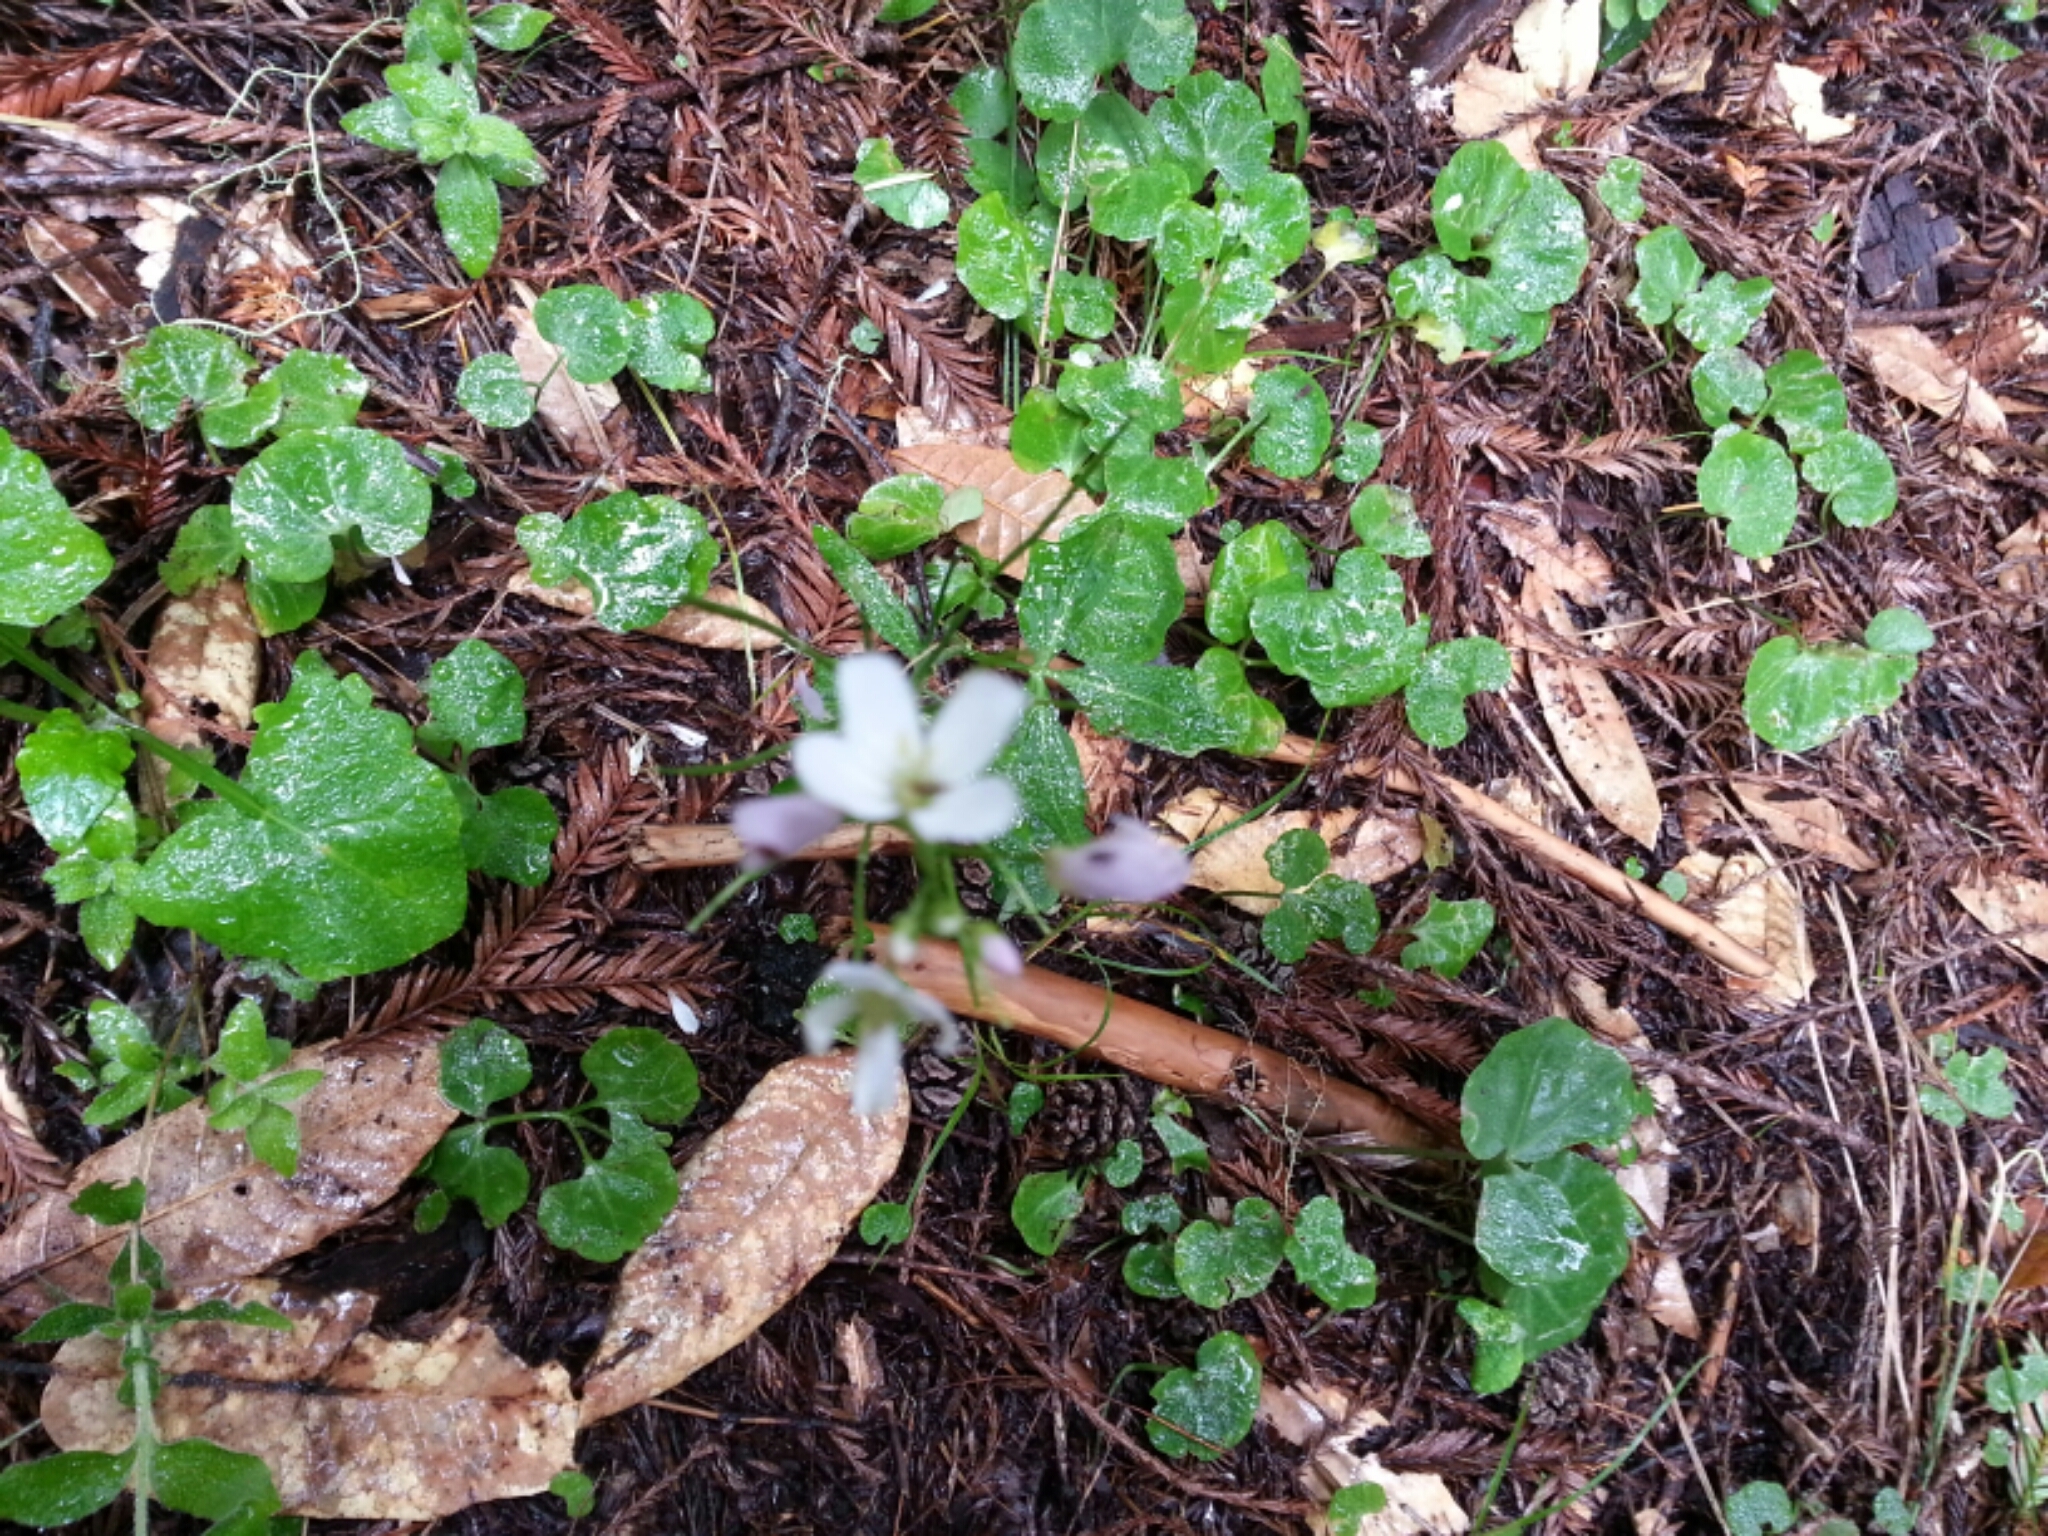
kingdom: Plantae
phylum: Tracheophyta
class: Magnoliopsida
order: Brassicales
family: Brassicaceae
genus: Cardamine
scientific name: Cardamine californica
